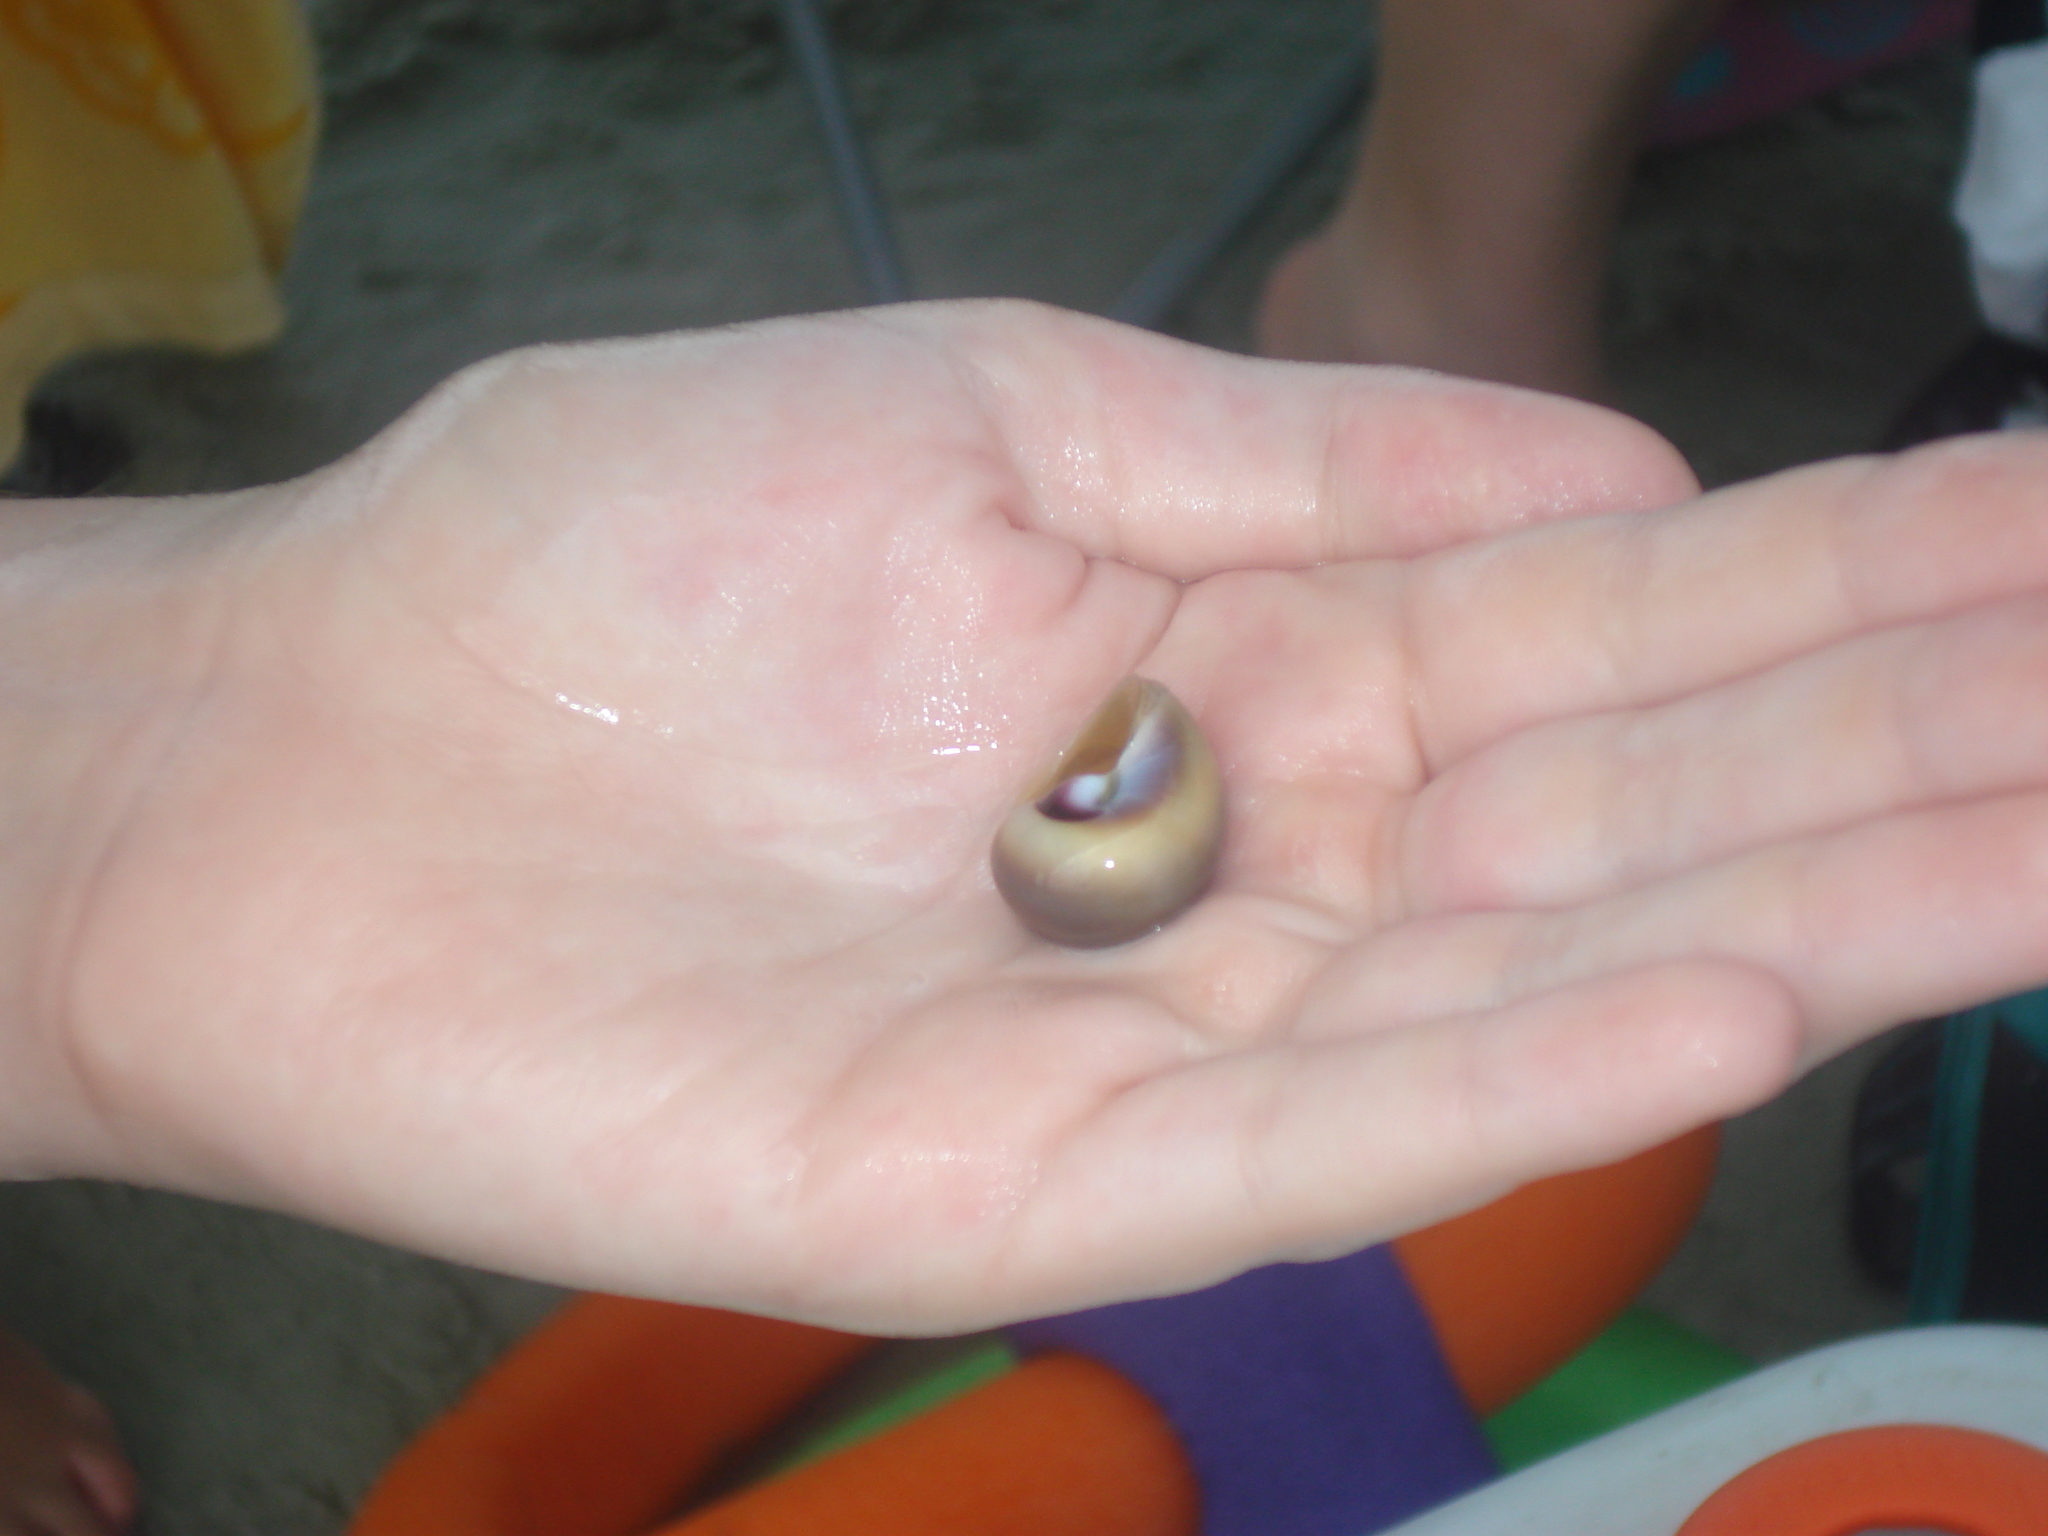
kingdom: Animalia
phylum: Mollusca
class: Gastropoda
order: Littorinimorpha
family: Naticidae
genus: Neverita
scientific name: Neverita duplicata
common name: Lobed moonsnail
